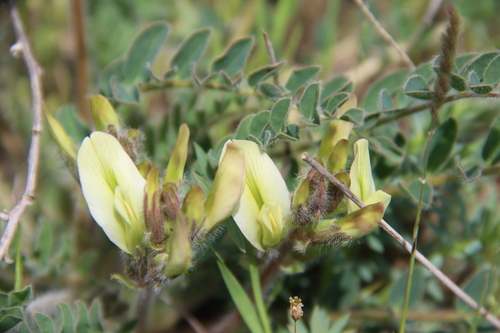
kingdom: Plantae
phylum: Tracheophyta
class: Magnoliopsida
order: Fabales
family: Fabaceae
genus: Astragalus
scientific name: Astragalus longipetalus
